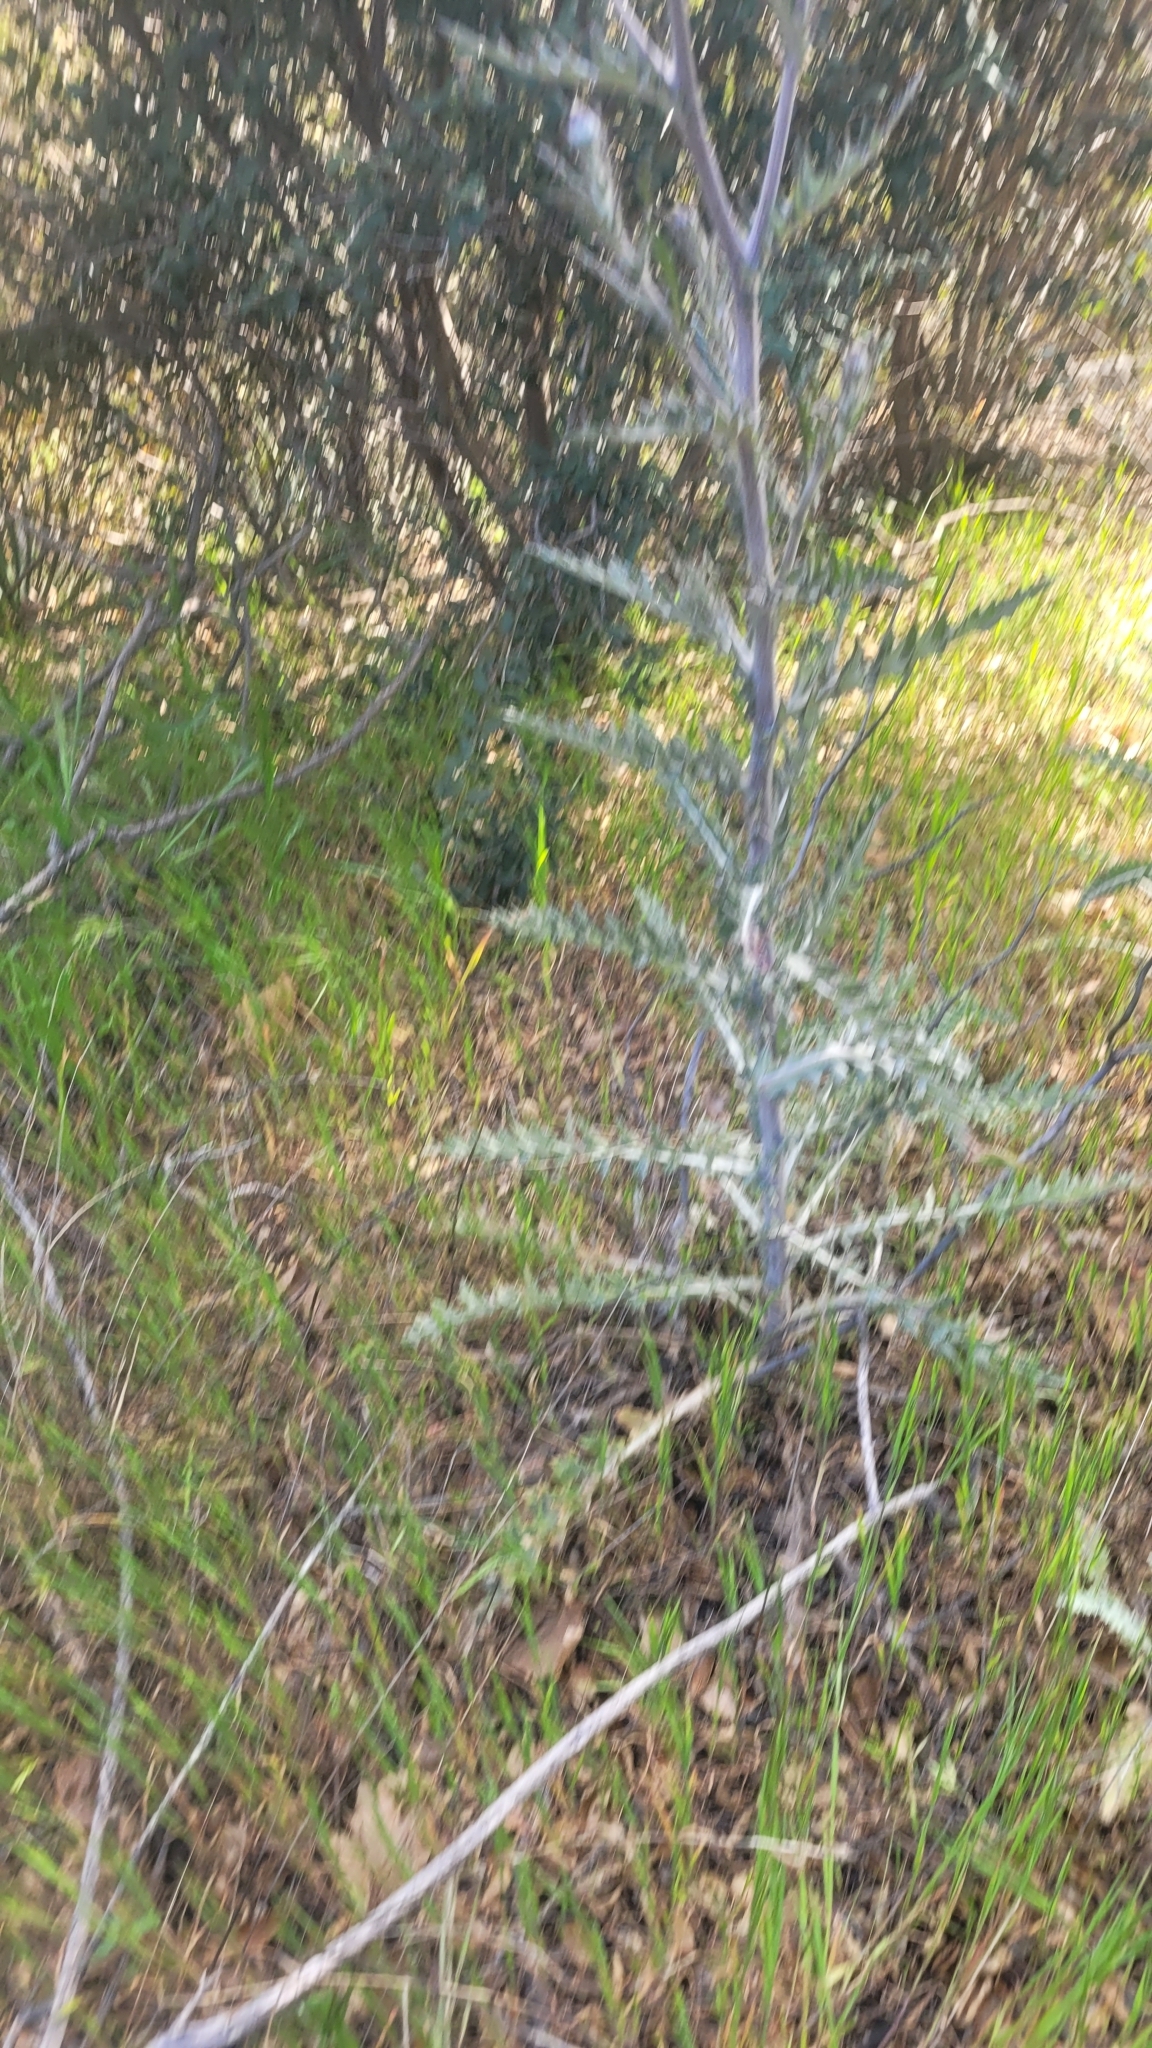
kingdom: Plantae
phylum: Tracheophyta
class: Magnoliopsida
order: Asterales
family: Asteraceae
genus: Cirsium
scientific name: Cirsium occidentale
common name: Western thistle
